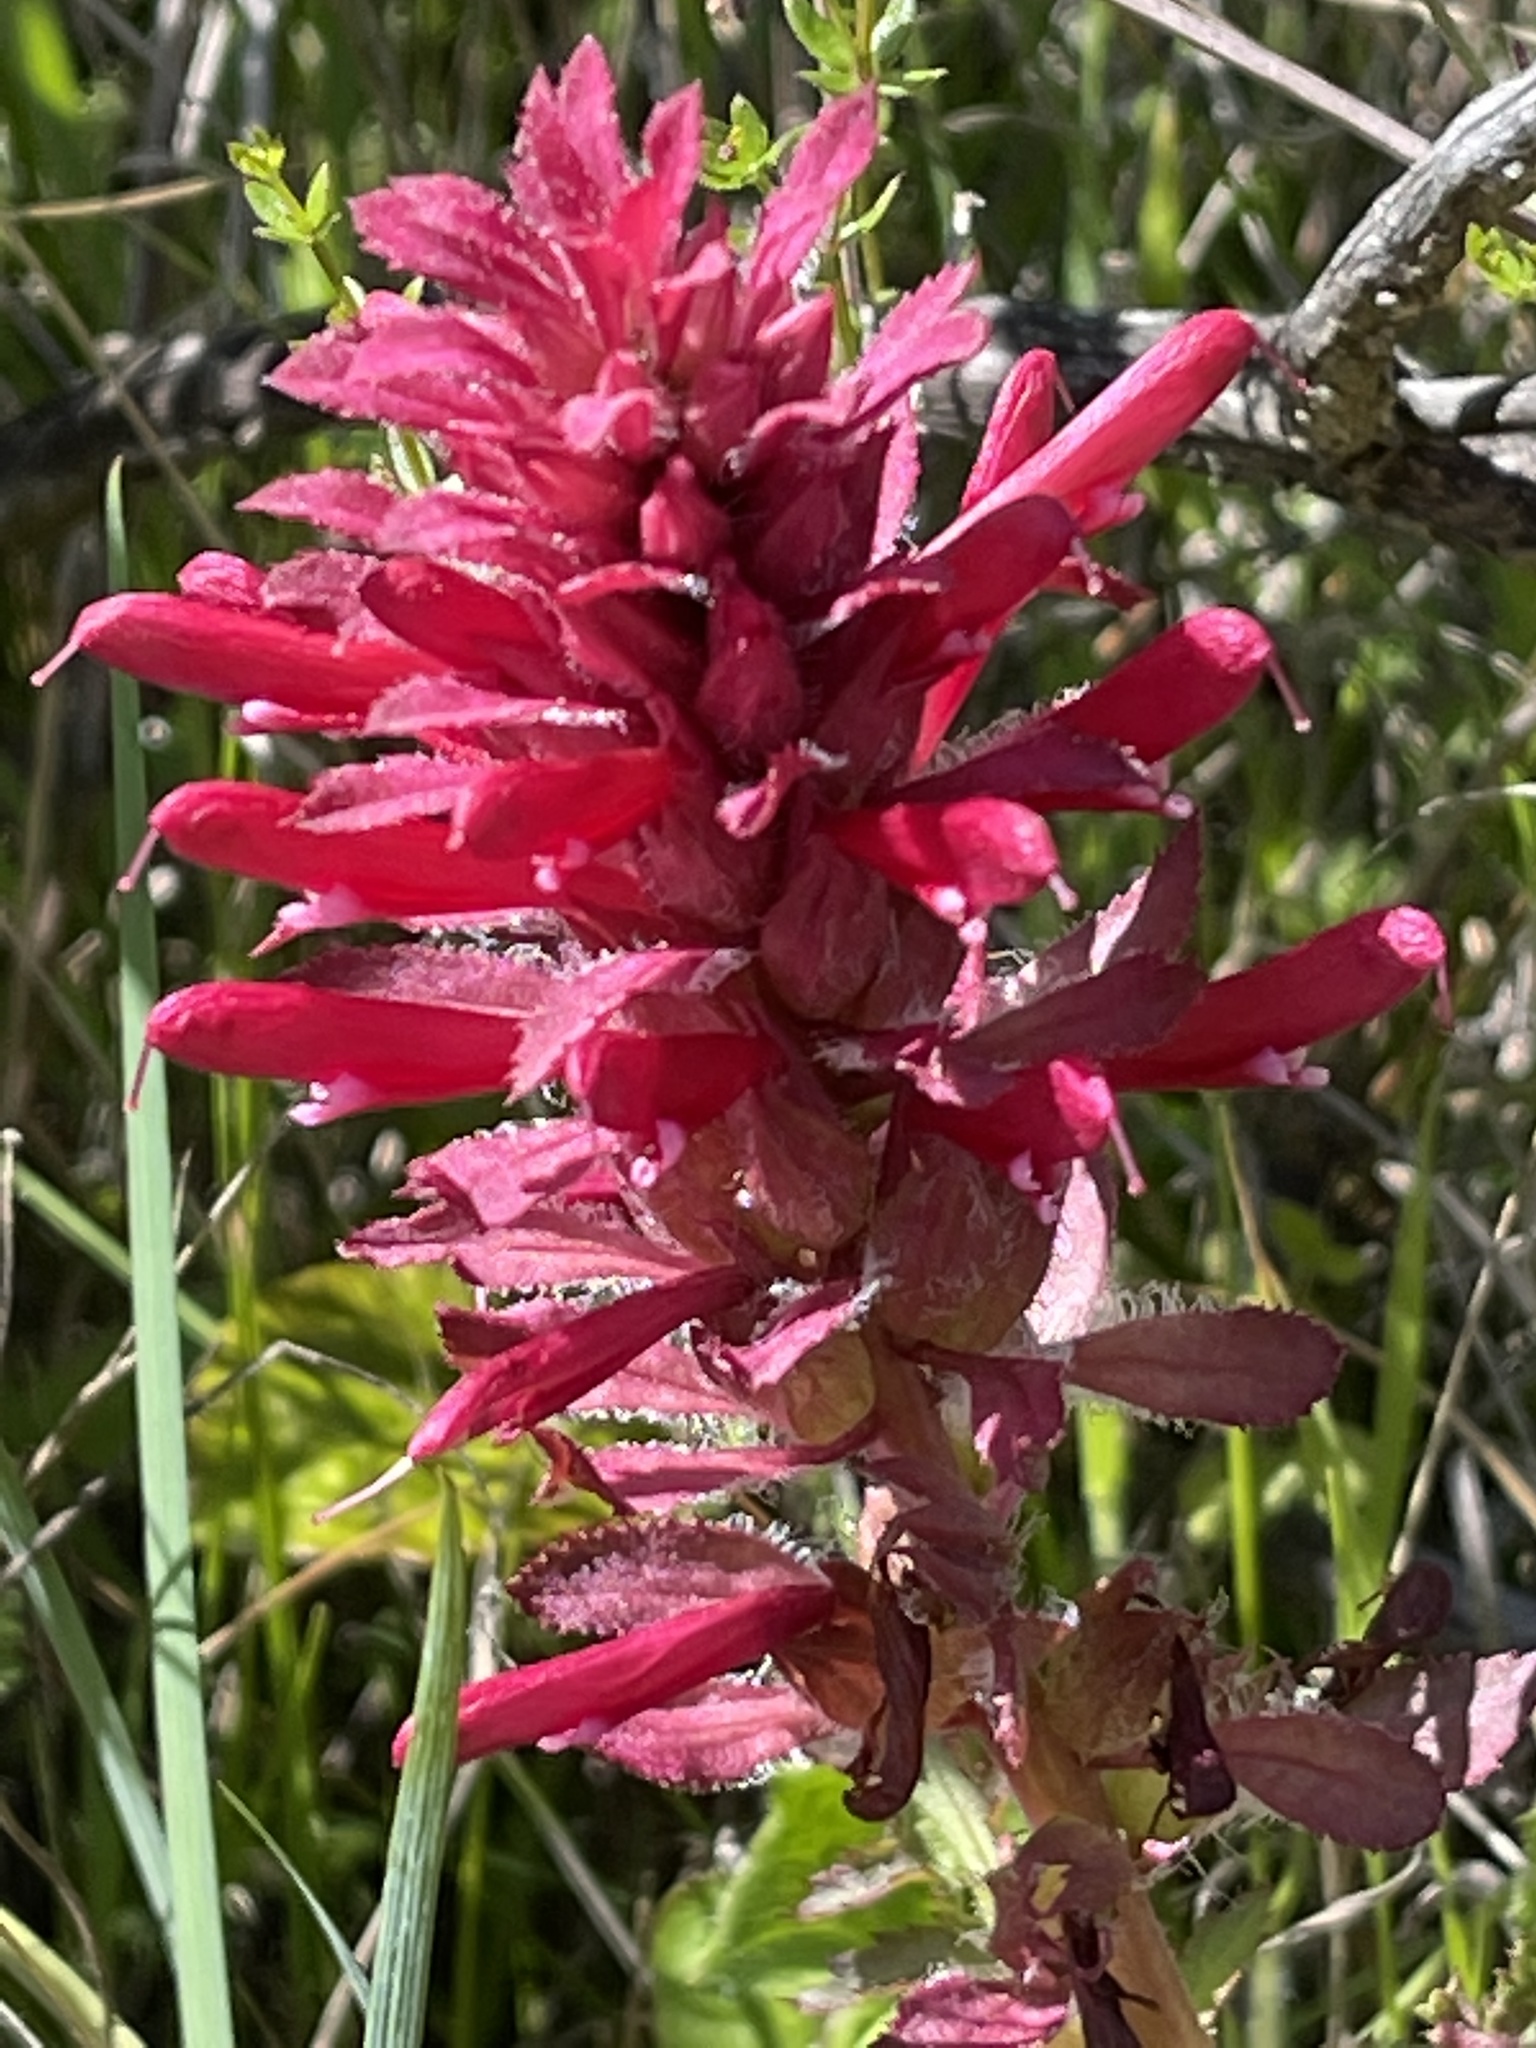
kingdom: Plantae
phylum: Tracheophyta
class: Magnoliopsida
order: Lamiales
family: Orobanchaceae
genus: Pedicularis
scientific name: Pedicularis densiflora
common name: Indian warrior
